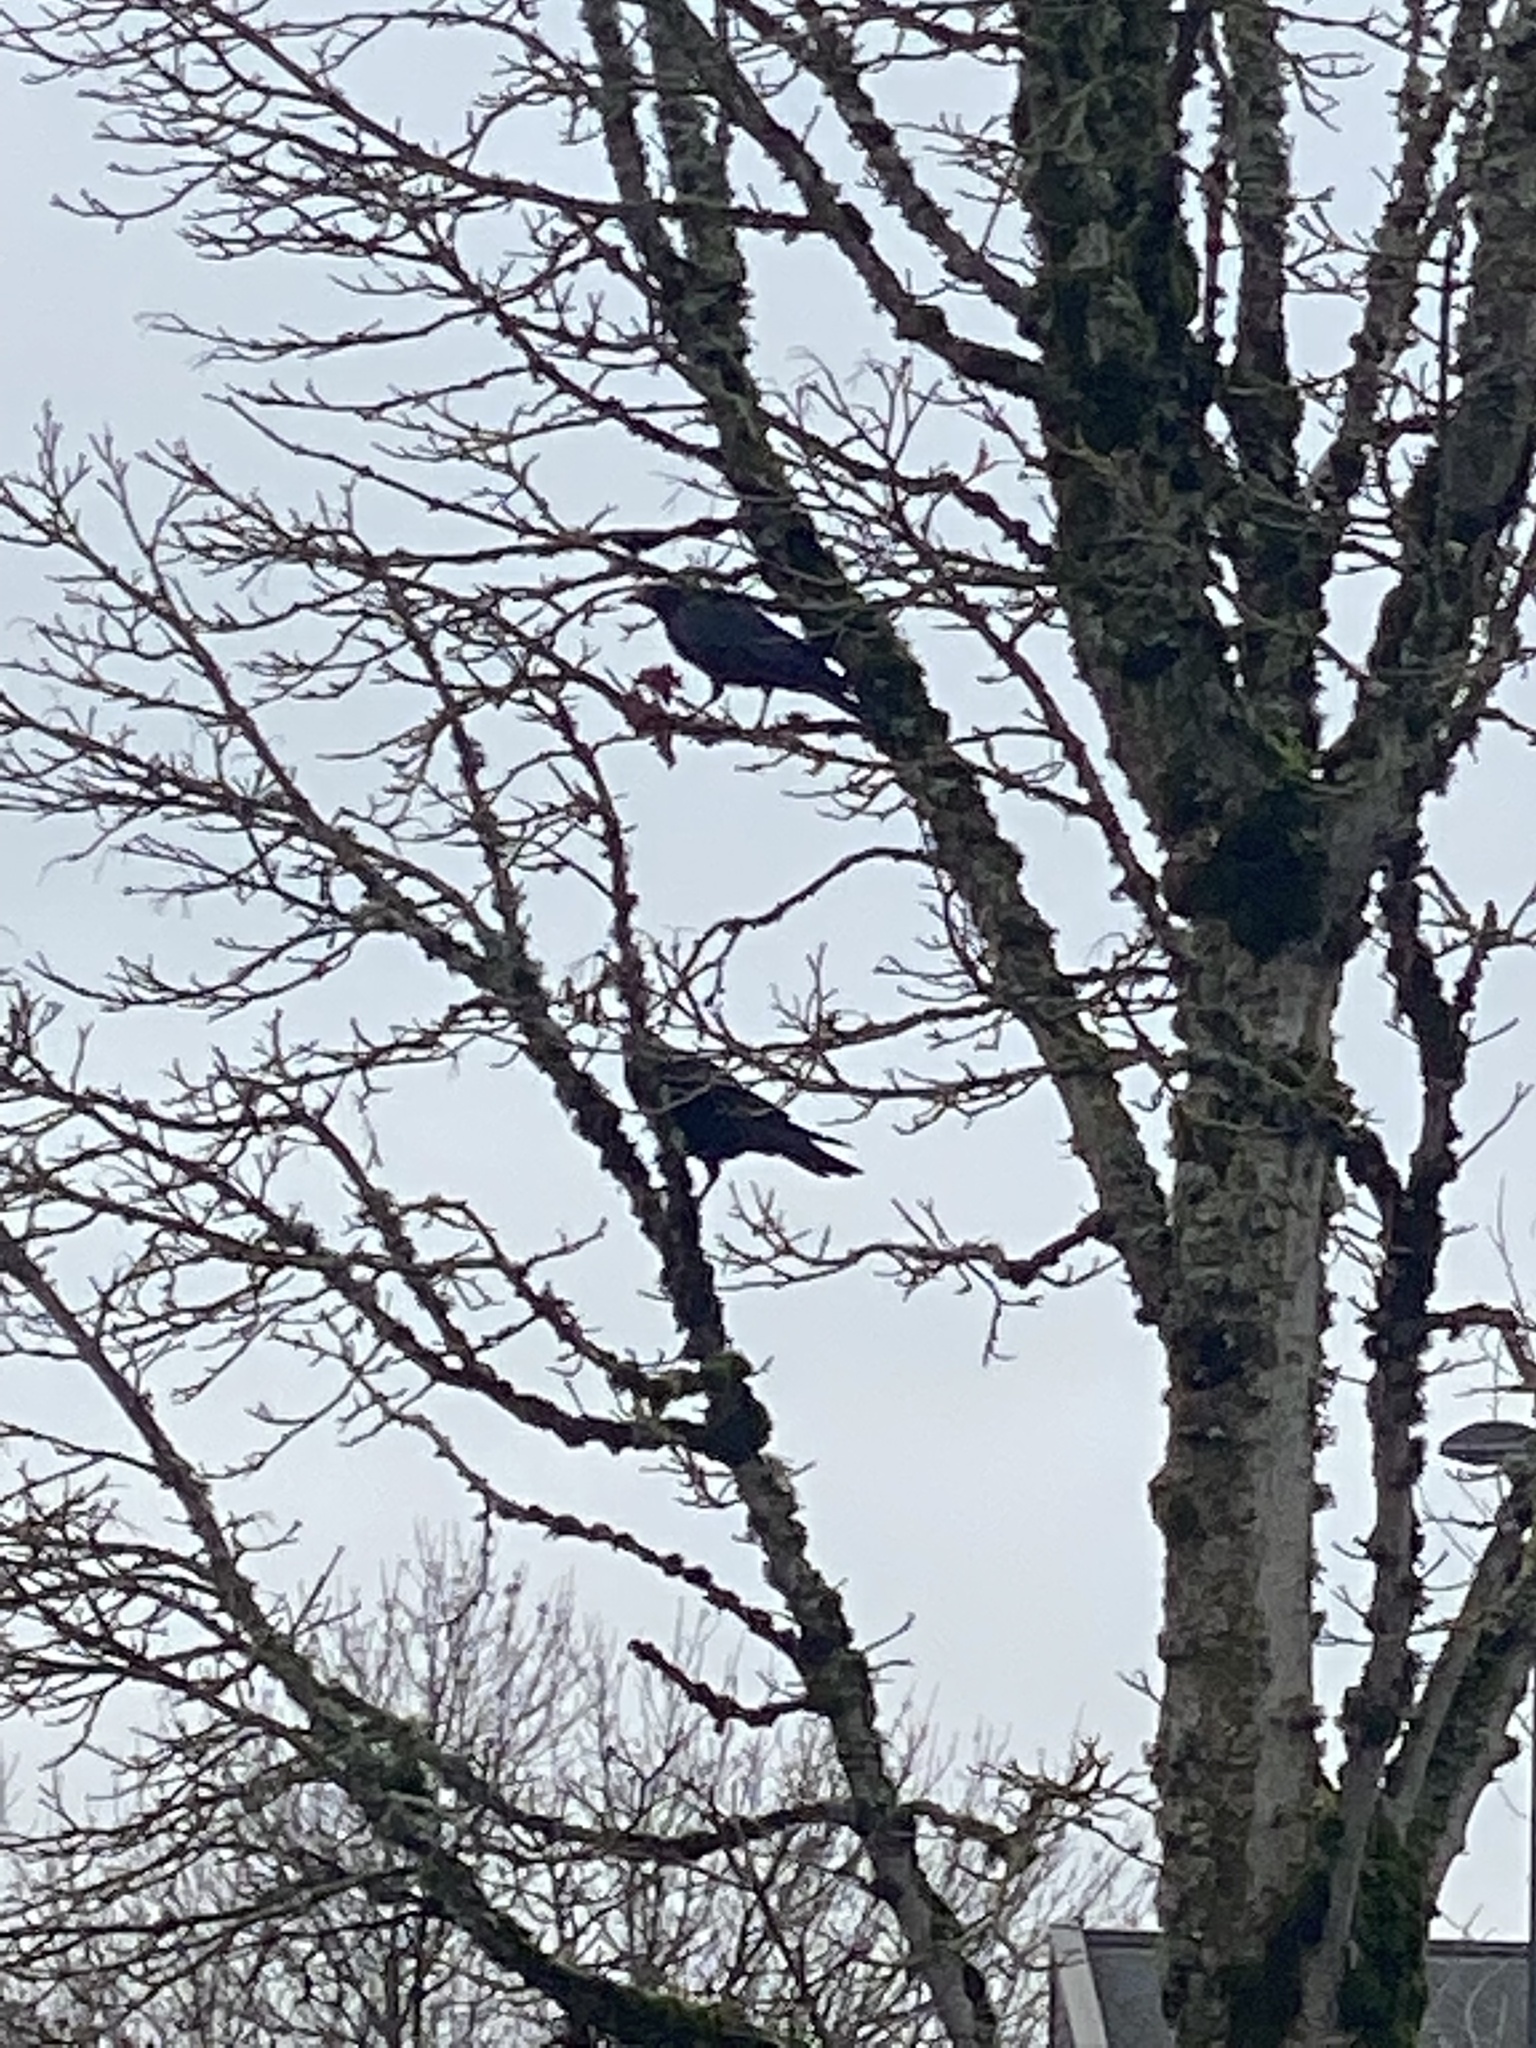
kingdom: Animalia
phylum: Chordata
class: Aves
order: Passeriformes
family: Corvidae
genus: Corvus
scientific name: Corvus brachyrhynchos
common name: American crow
